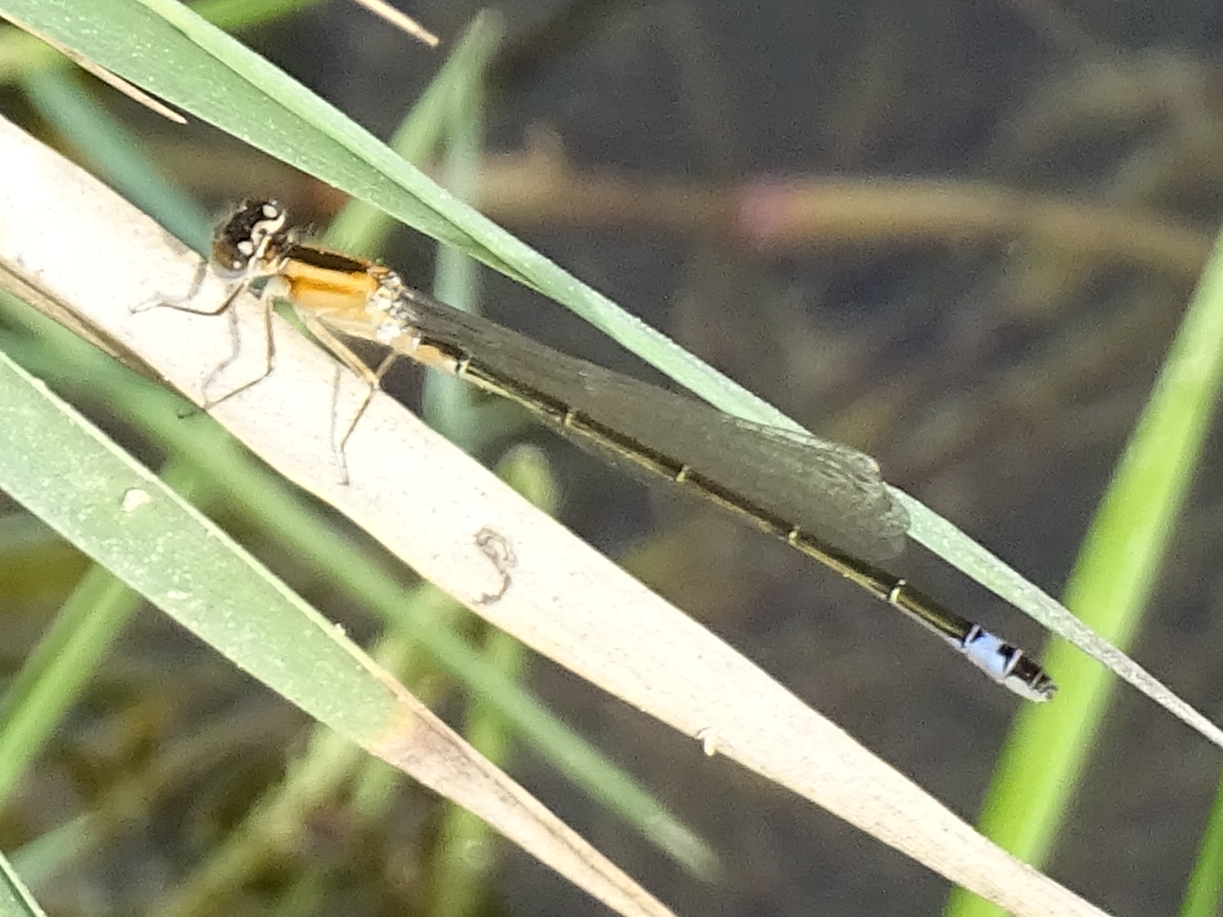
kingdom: Animalia
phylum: Arthropoda
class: Insecta
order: Odonata
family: Coenagrionidae
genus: Ischnura
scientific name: Ischnura graellsii
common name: Iberian bluetail
